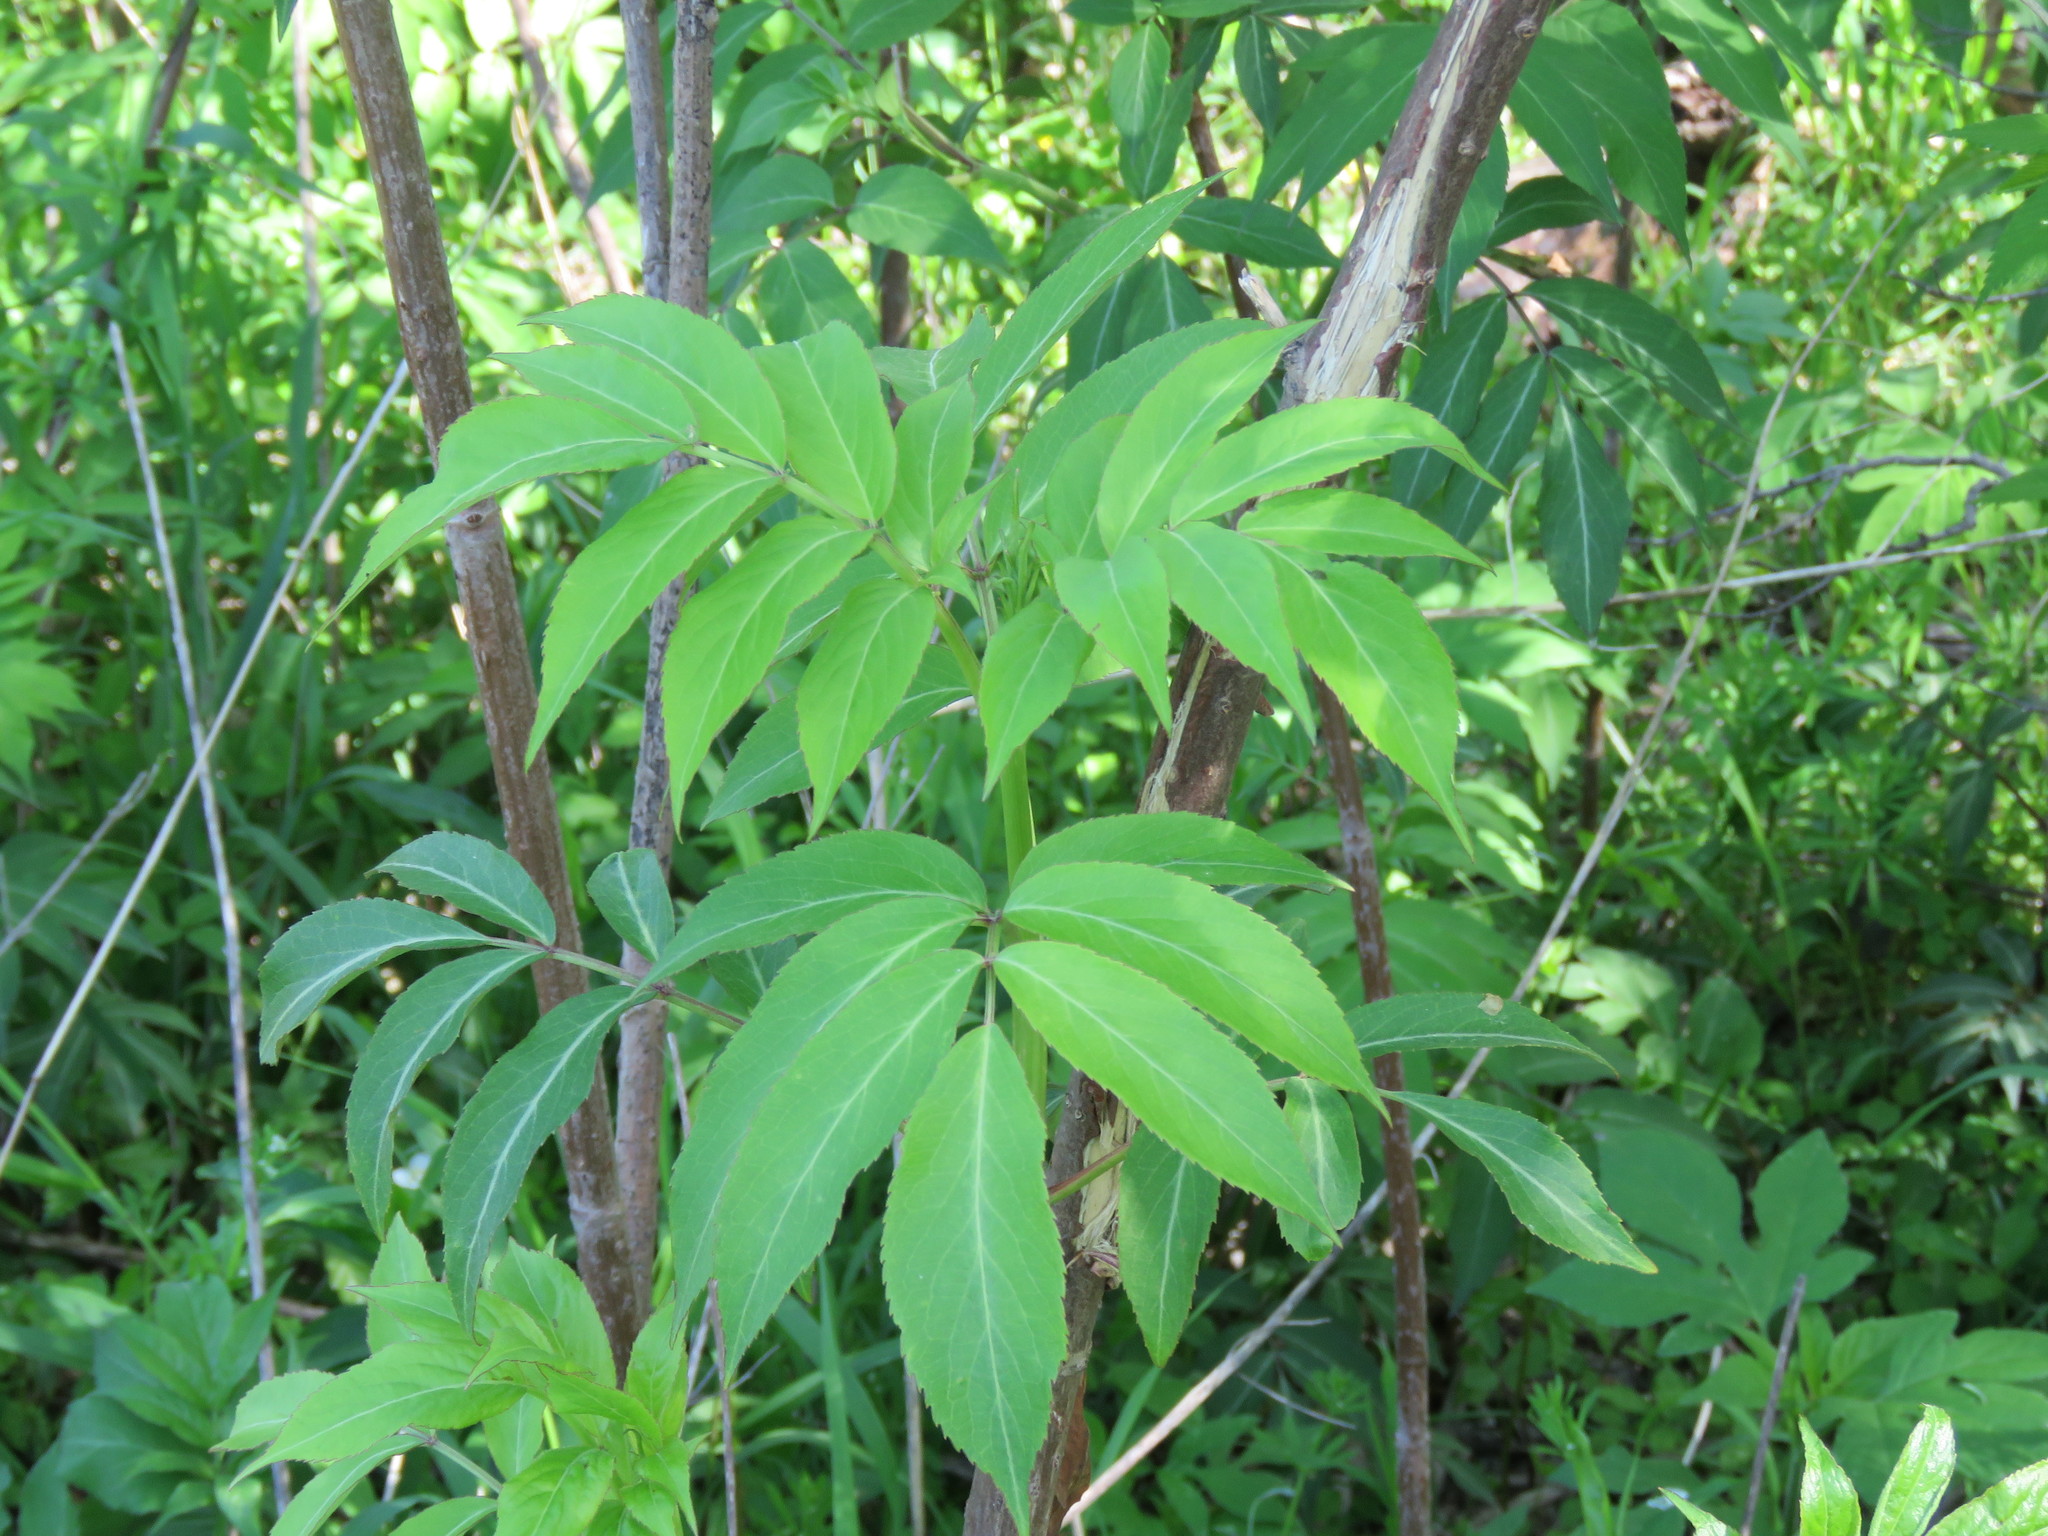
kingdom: Plantae
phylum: Tracheophyta
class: Magnoliopsida
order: Dipsacales
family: Viburnaceae
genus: Sambucus
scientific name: Sambucus canadensis
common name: American elder
